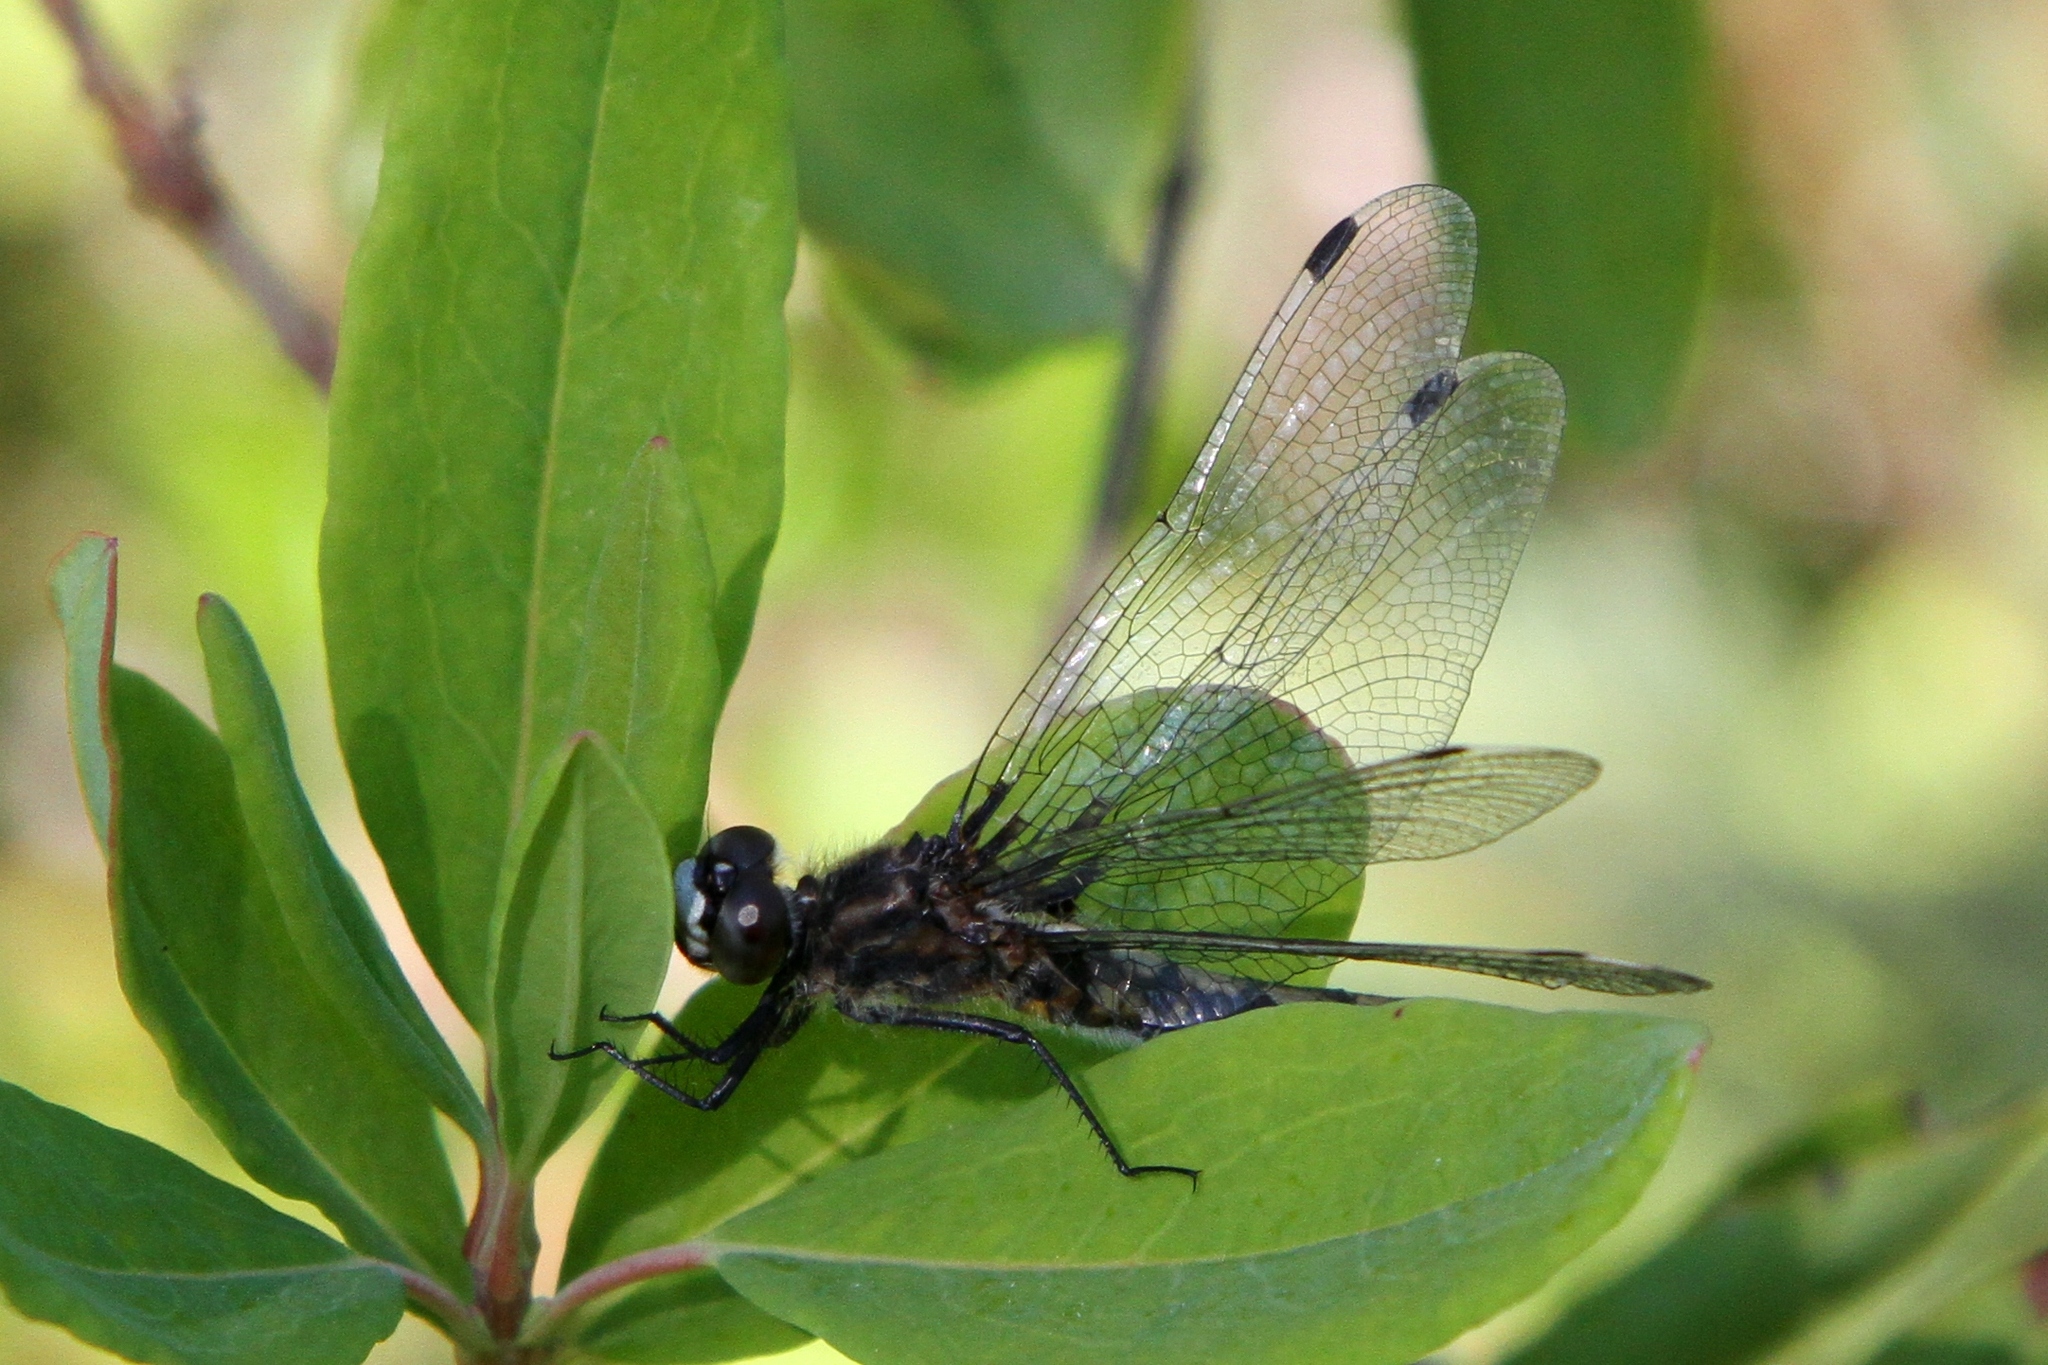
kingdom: Animalia
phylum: Arthropoda
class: Insecta
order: Odonata
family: Libellulidae
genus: Leucorrhinia
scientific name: Leucorrhinia proxima
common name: Belted whiteface
